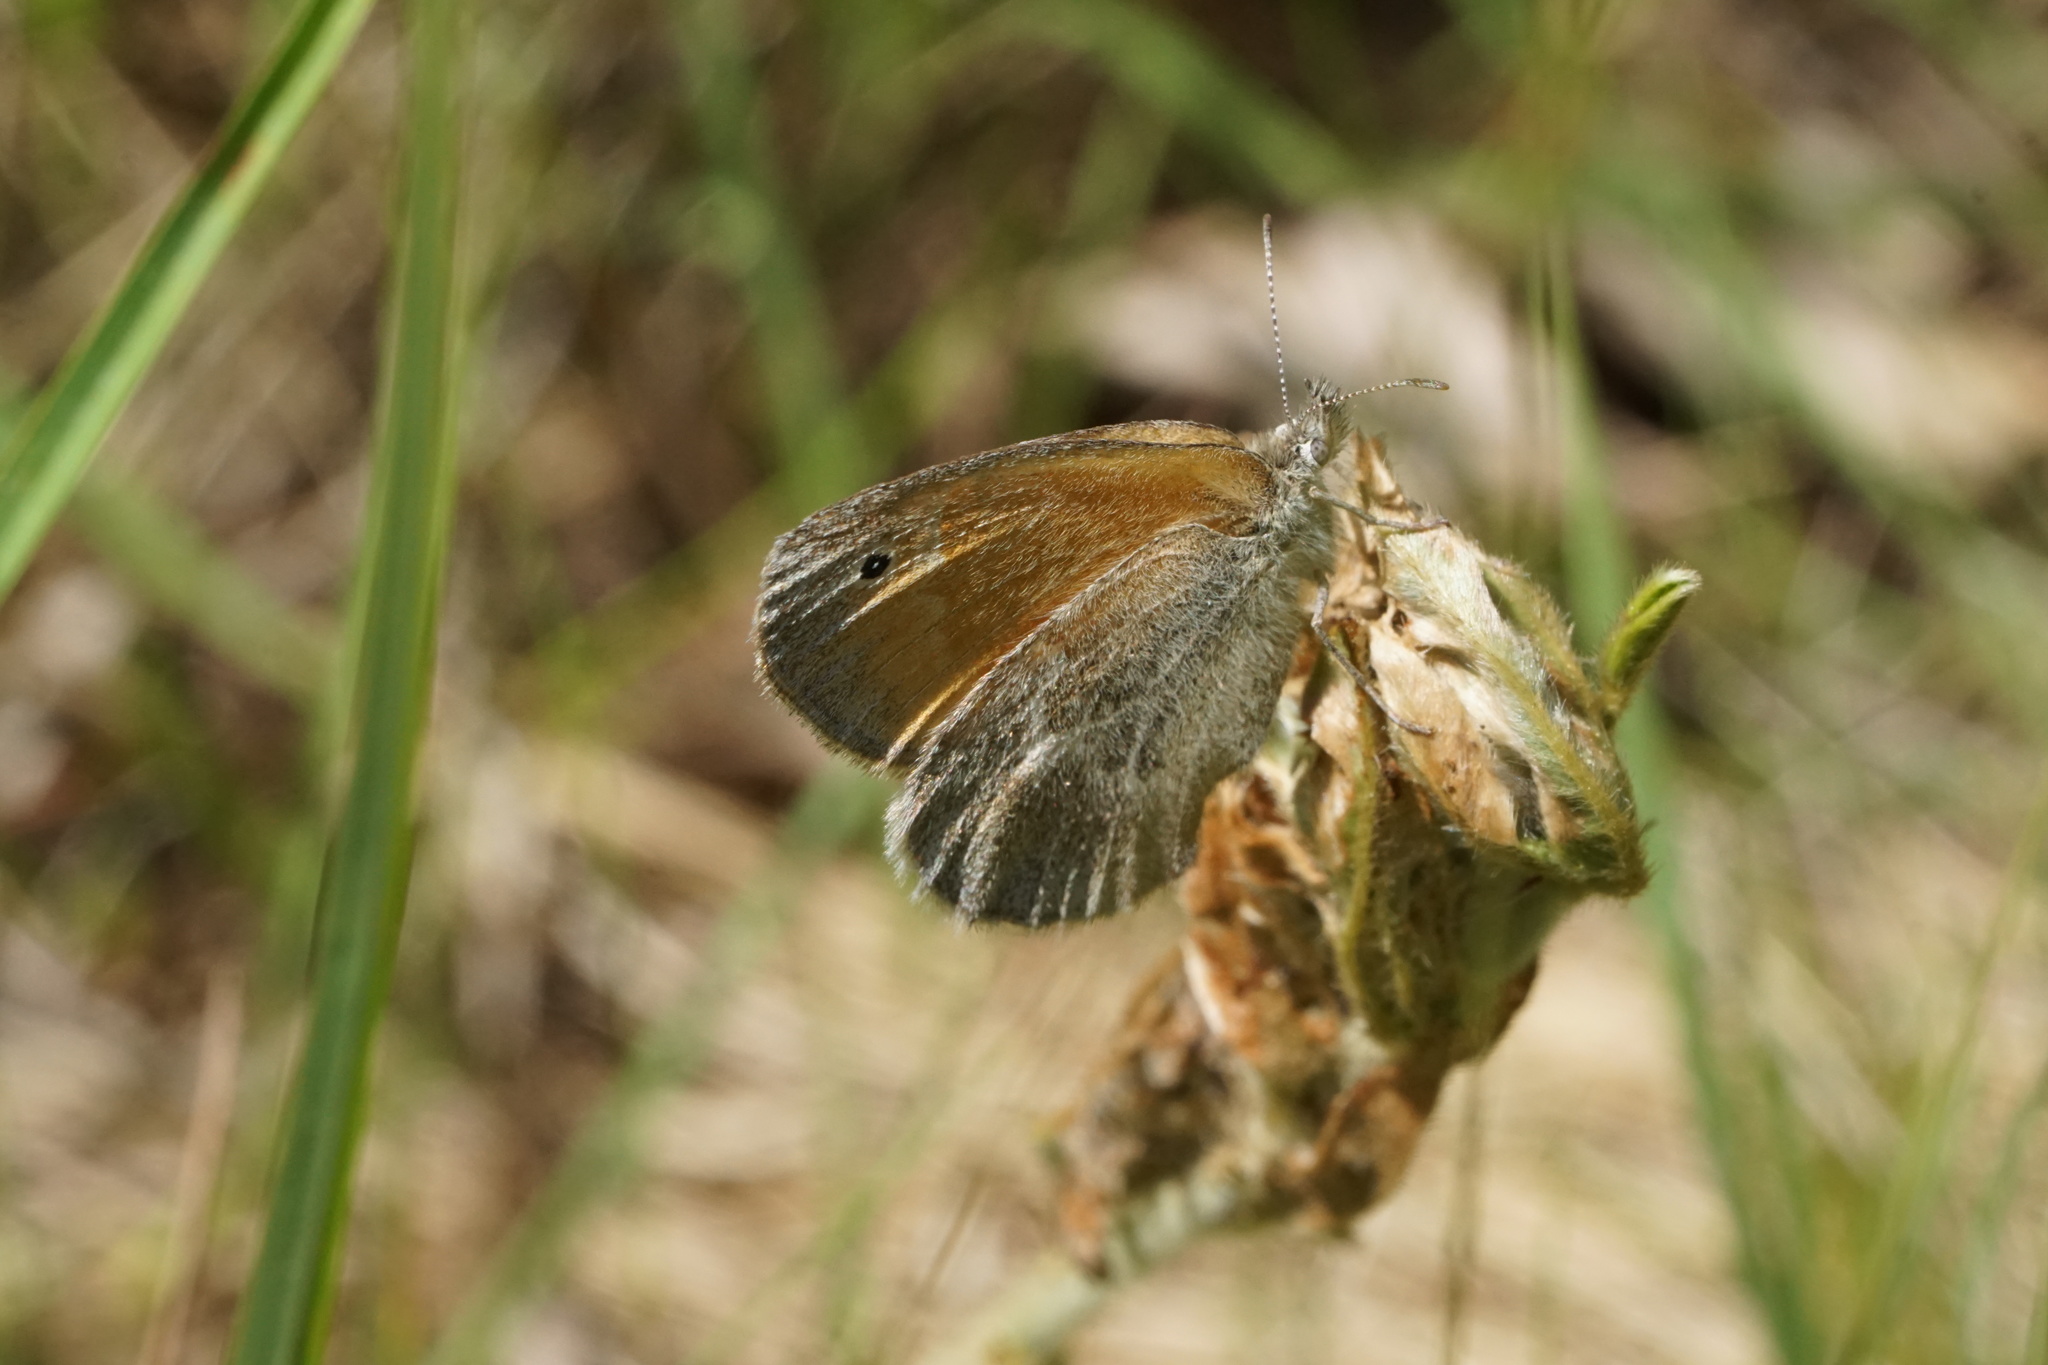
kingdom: Animalia
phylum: Arthropoda
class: Insecta
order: Lepidoptera
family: Nymphalidae
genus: Coenonympha
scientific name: Coenonympha california
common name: Common ringlet
